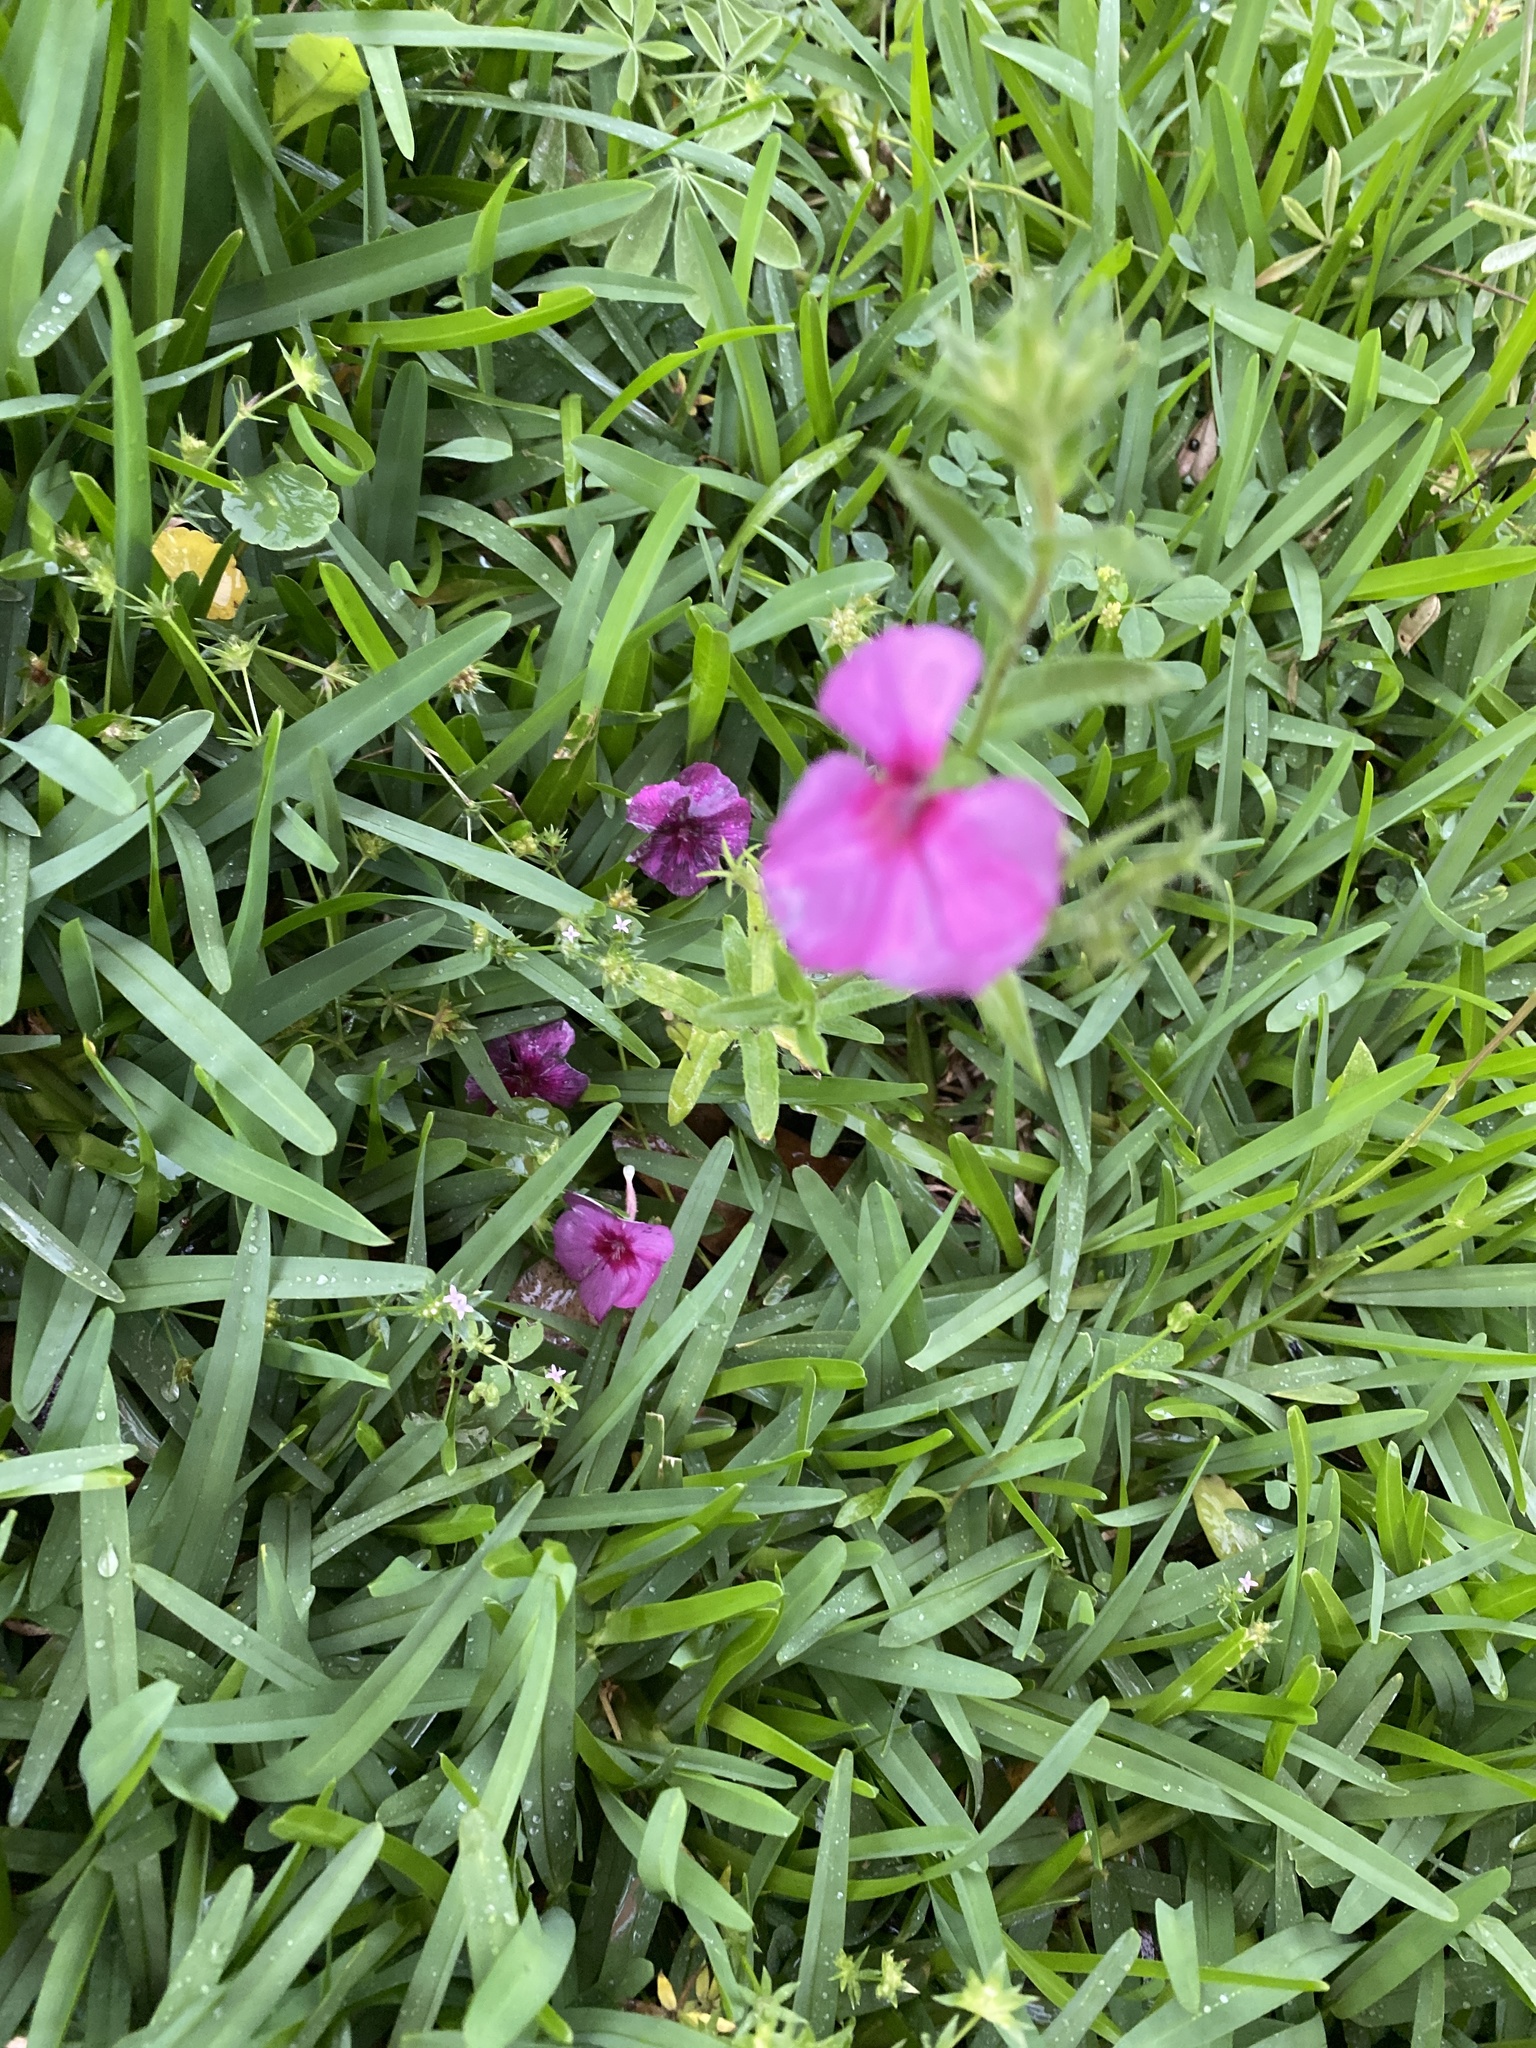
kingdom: Plantae
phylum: Tracheophyta
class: Magnoliopsida
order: Ericales
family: Polemoniaceae
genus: Phlox
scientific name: Phlox drummondii
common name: Drummond's phlox
